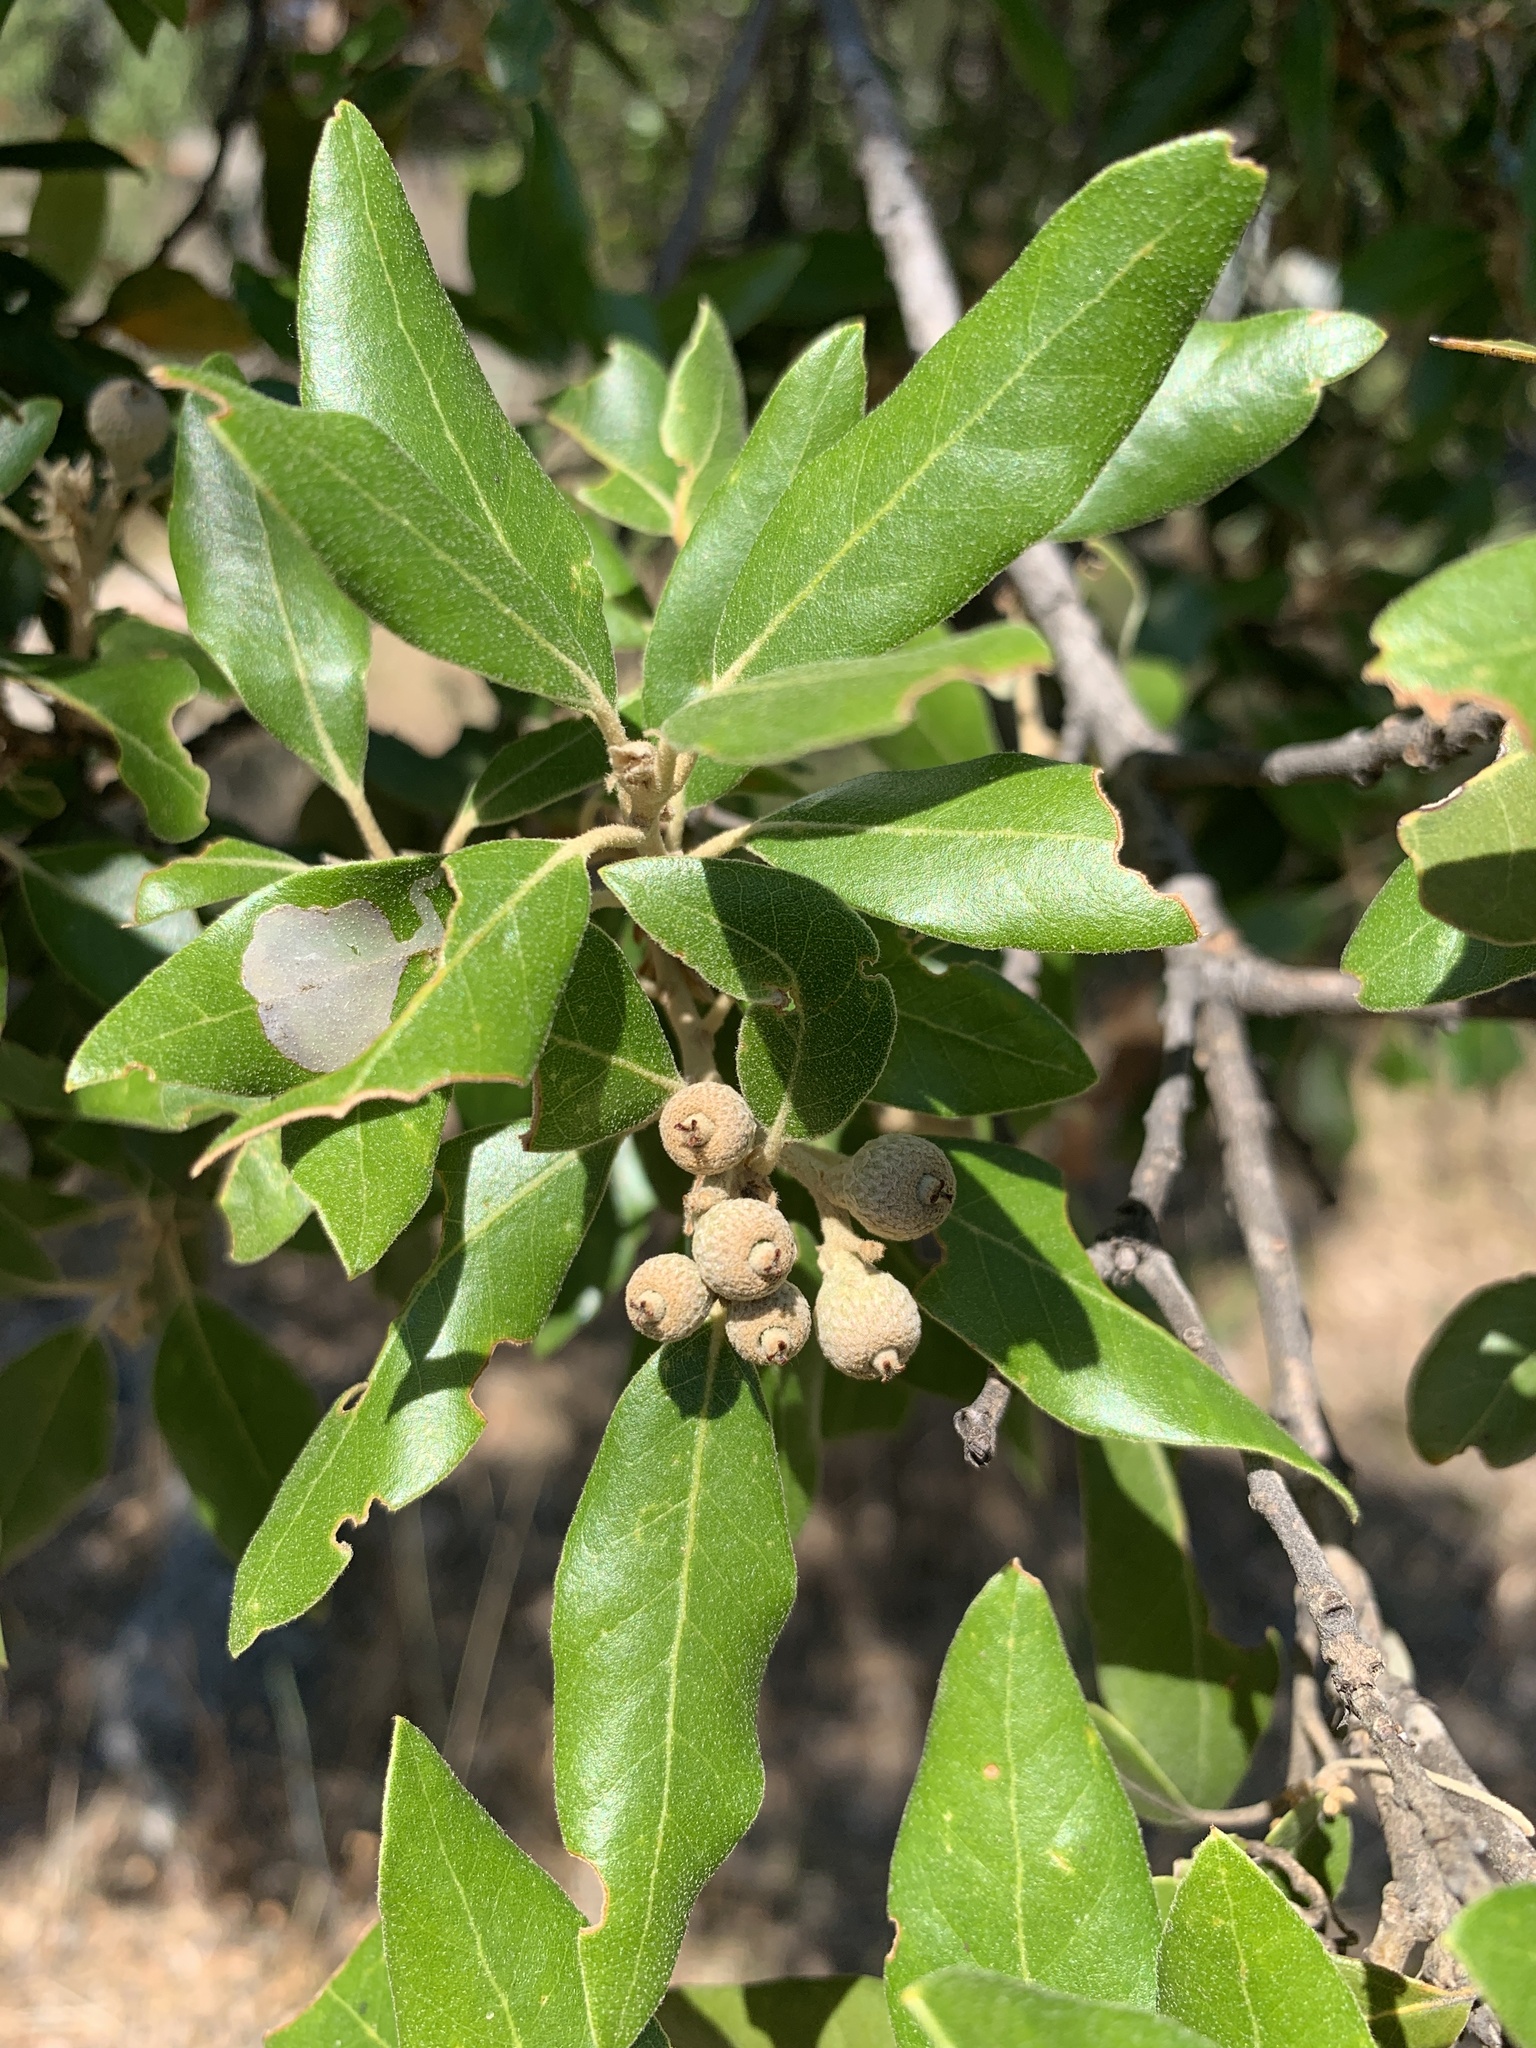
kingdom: Plantae
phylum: Tracheophyta
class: Magnoliopsida
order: Fagales
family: Fagaceae
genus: Quercus
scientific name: Quercus ilex
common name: Evergreen oak
